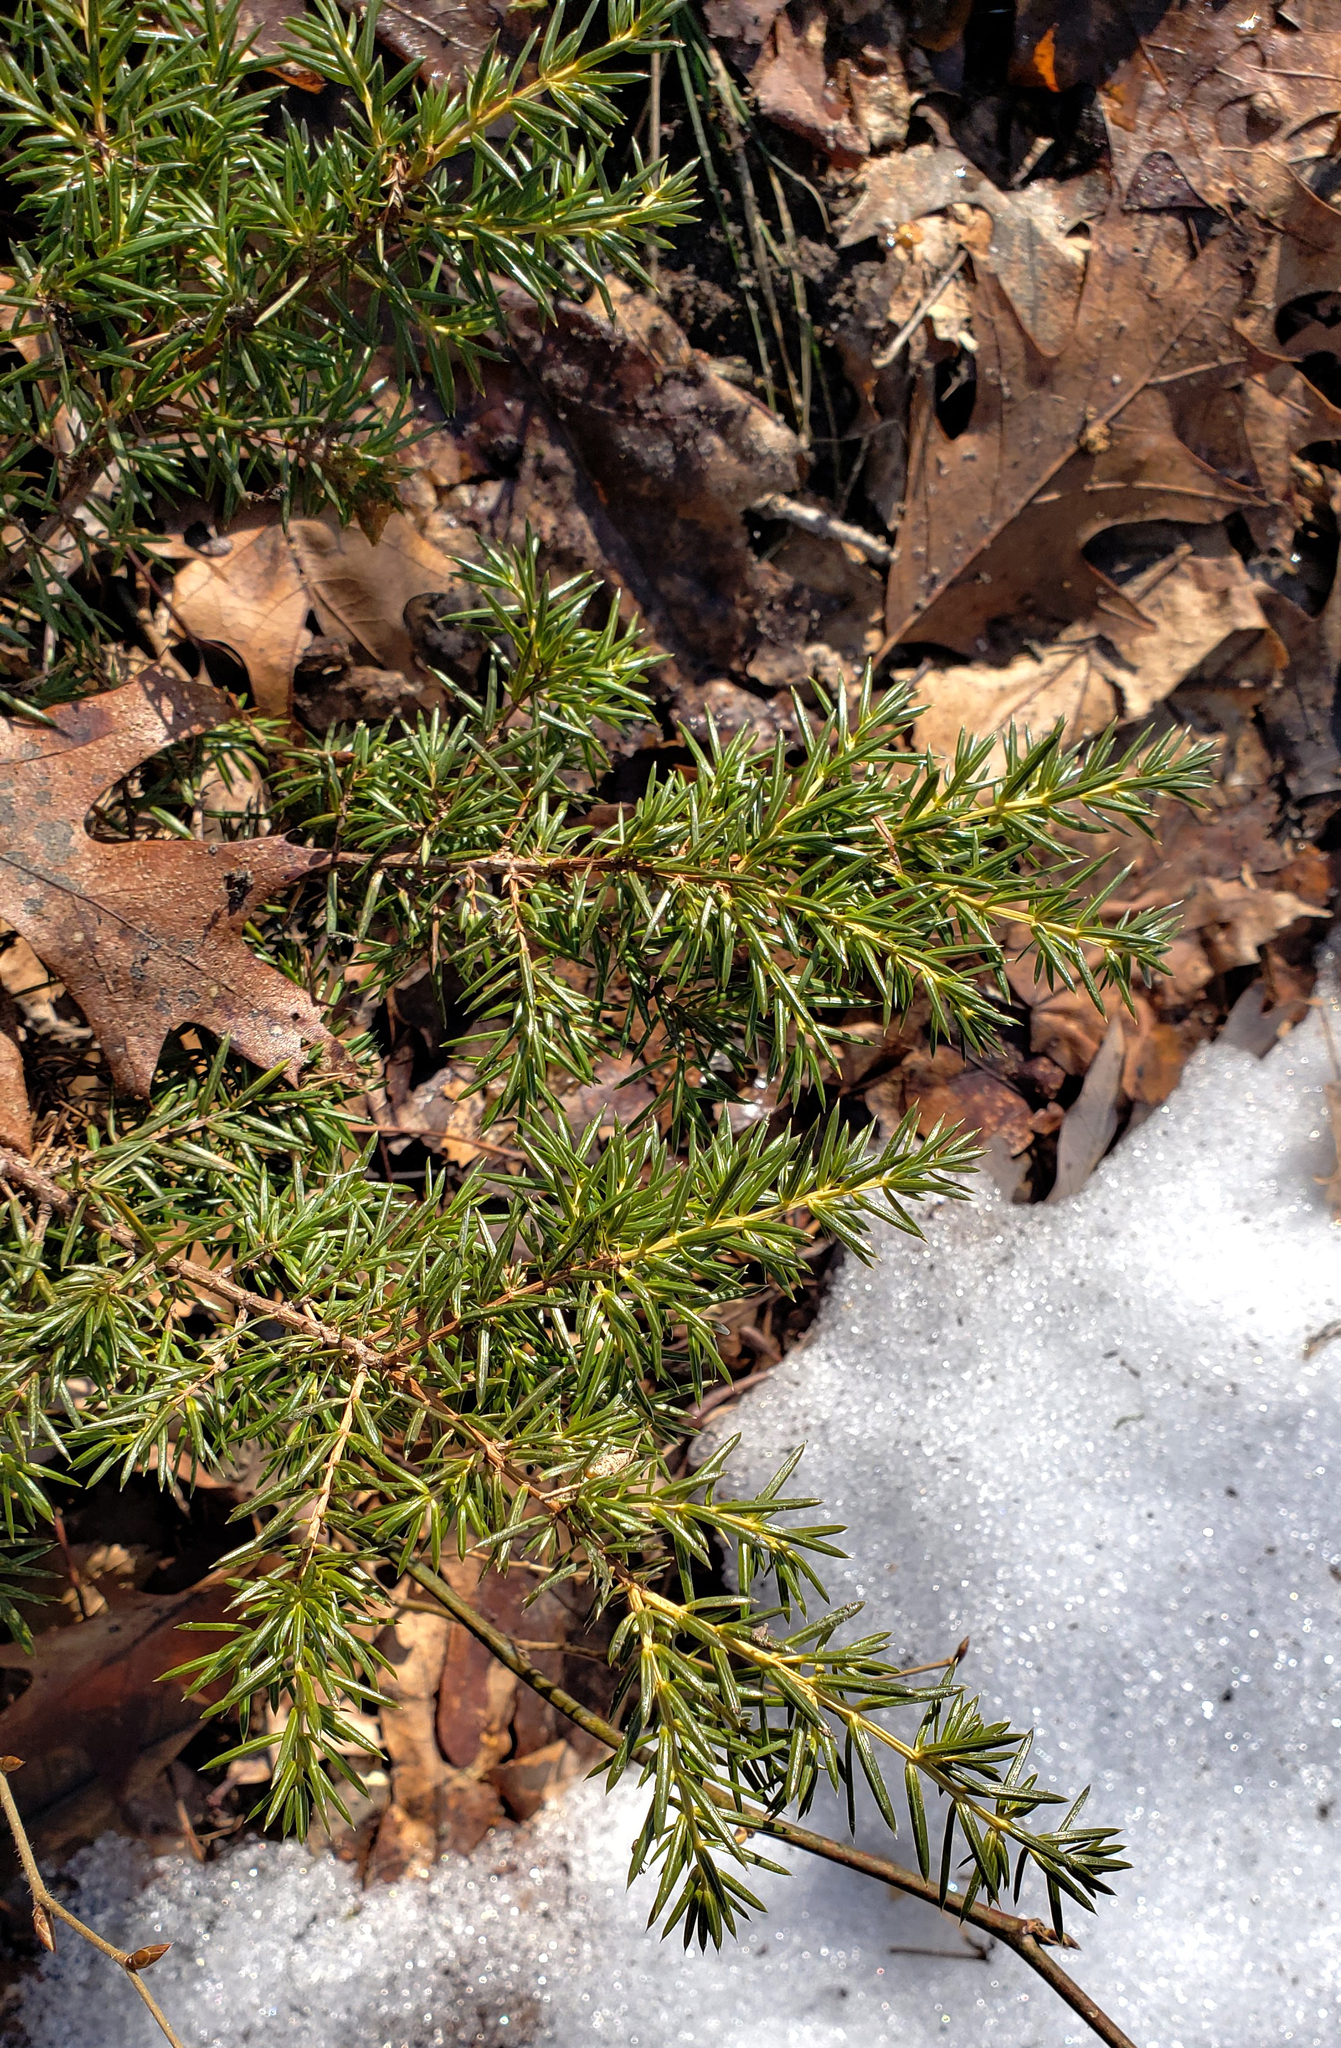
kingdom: Plantae
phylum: Tracheophyta
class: Pinopsida
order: Pinales
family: Cupressaceae
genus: Juniperus
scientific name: Juniperus communis
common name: Common juniper
